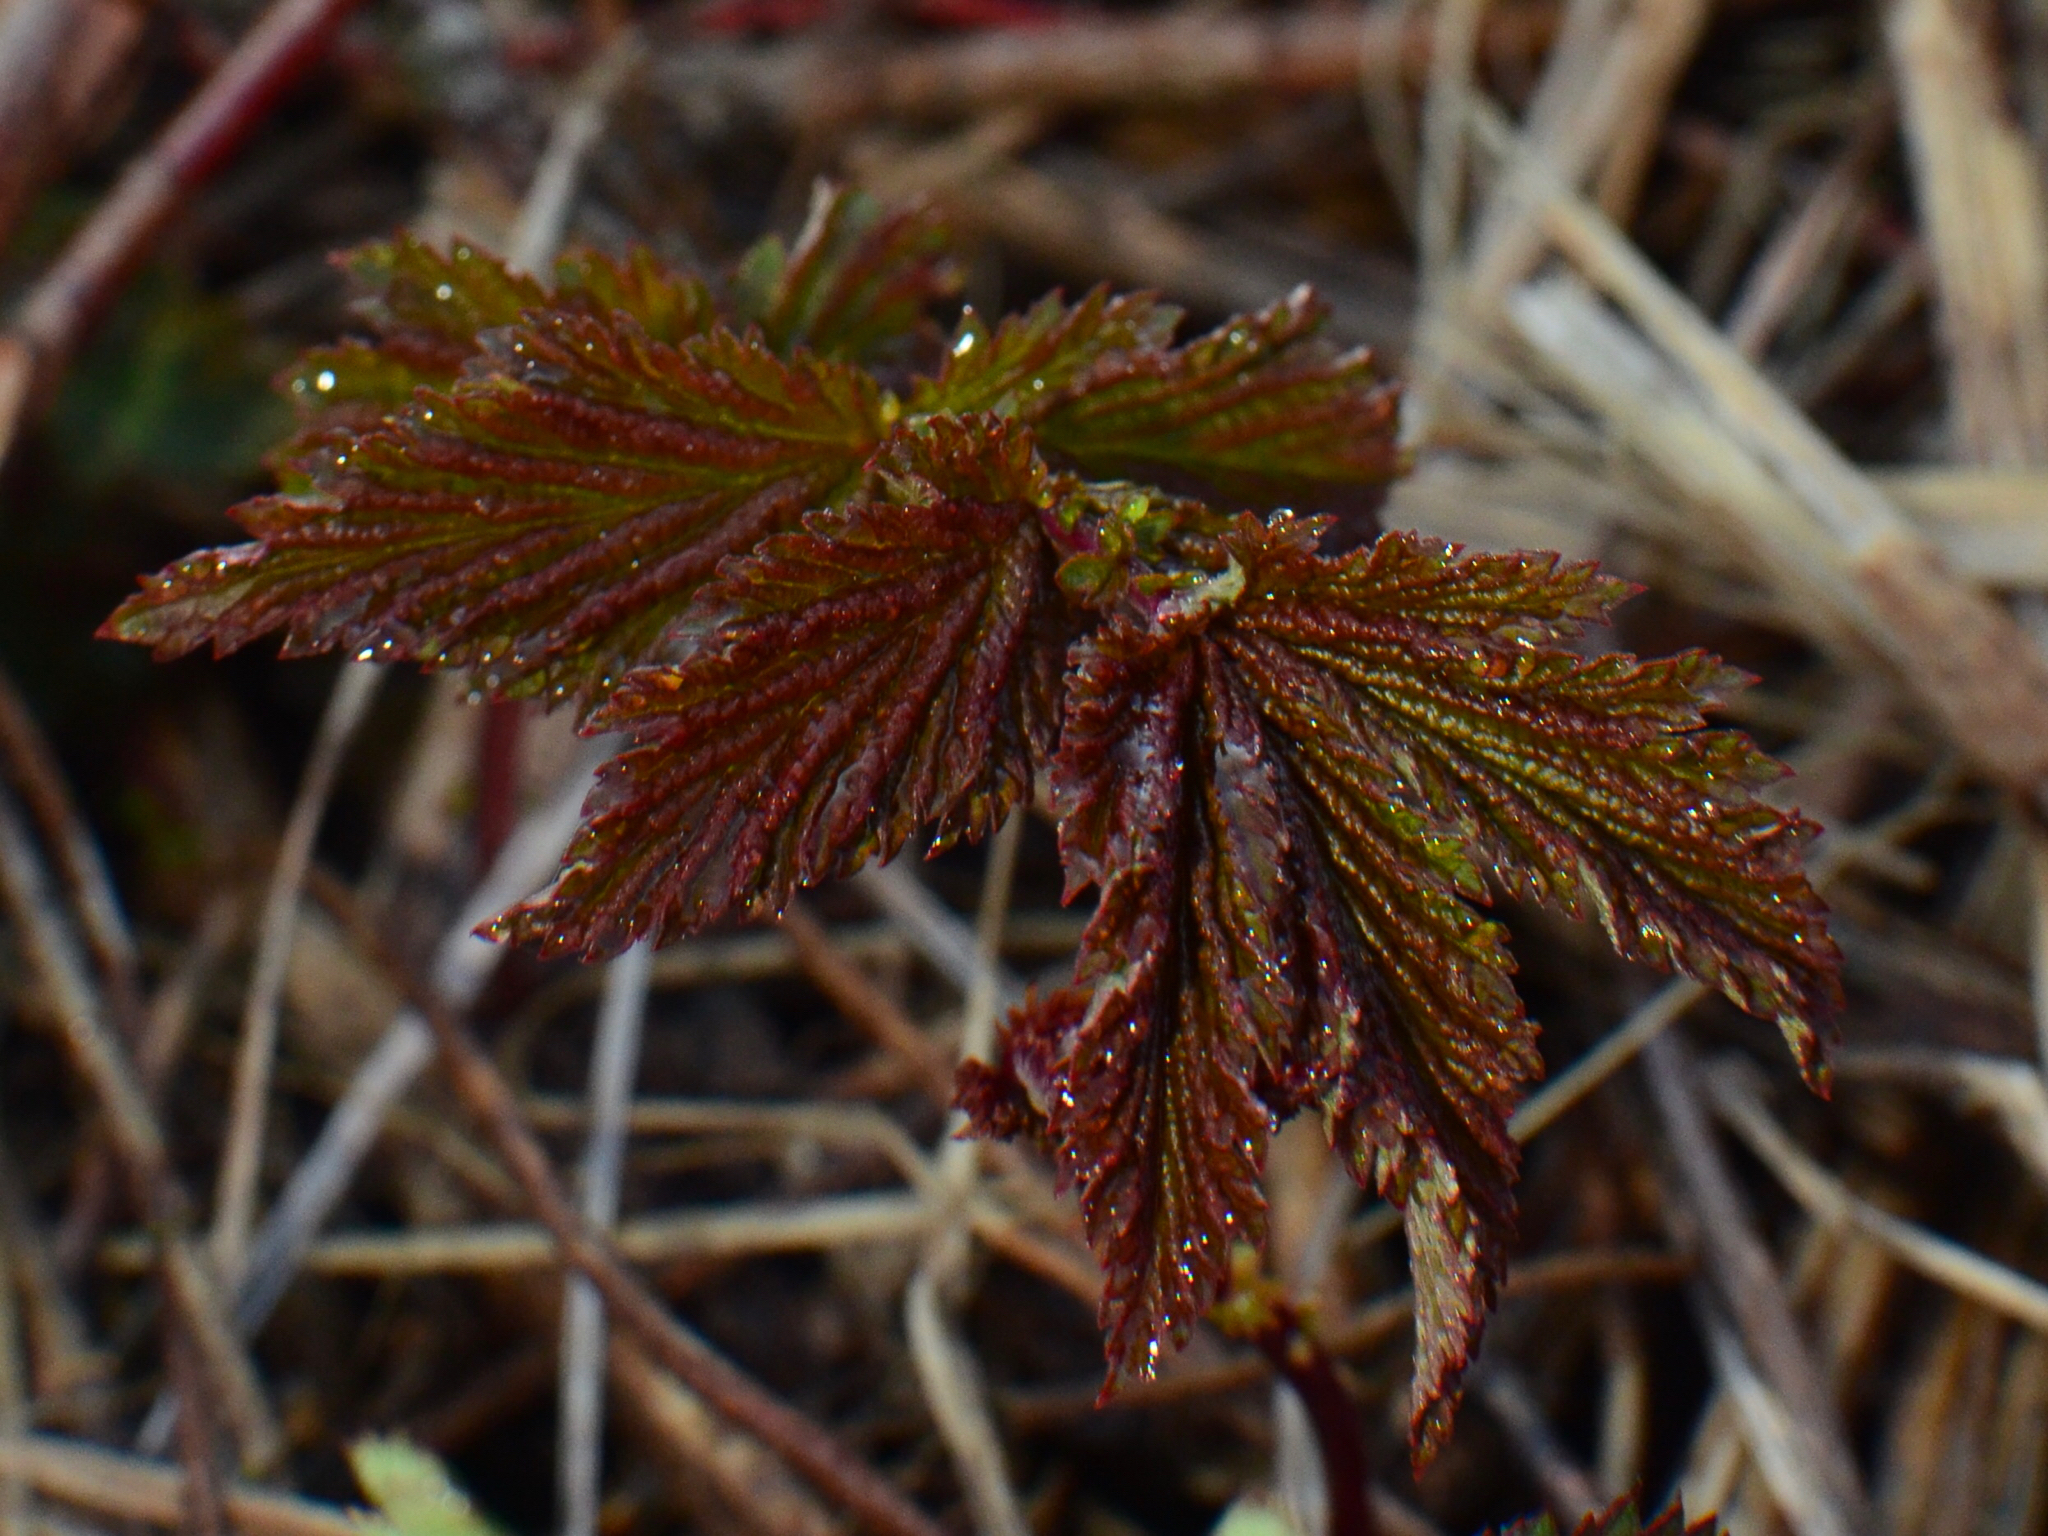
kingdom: Plantae
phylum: Tracheophyta
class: Magnoliopsida
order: Rosales
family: Rosaceae
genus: Filipendula
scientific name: Filipendula ulmaria
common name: Meadowsweet
